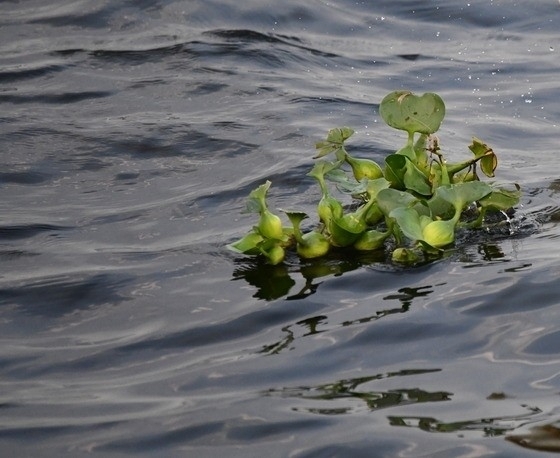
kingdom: Plantae
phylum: Tracheophyta
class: Liliopsida
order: Commelinales
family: Pontederiaceae
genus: Pontederia
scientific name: Pontederia crassipes
